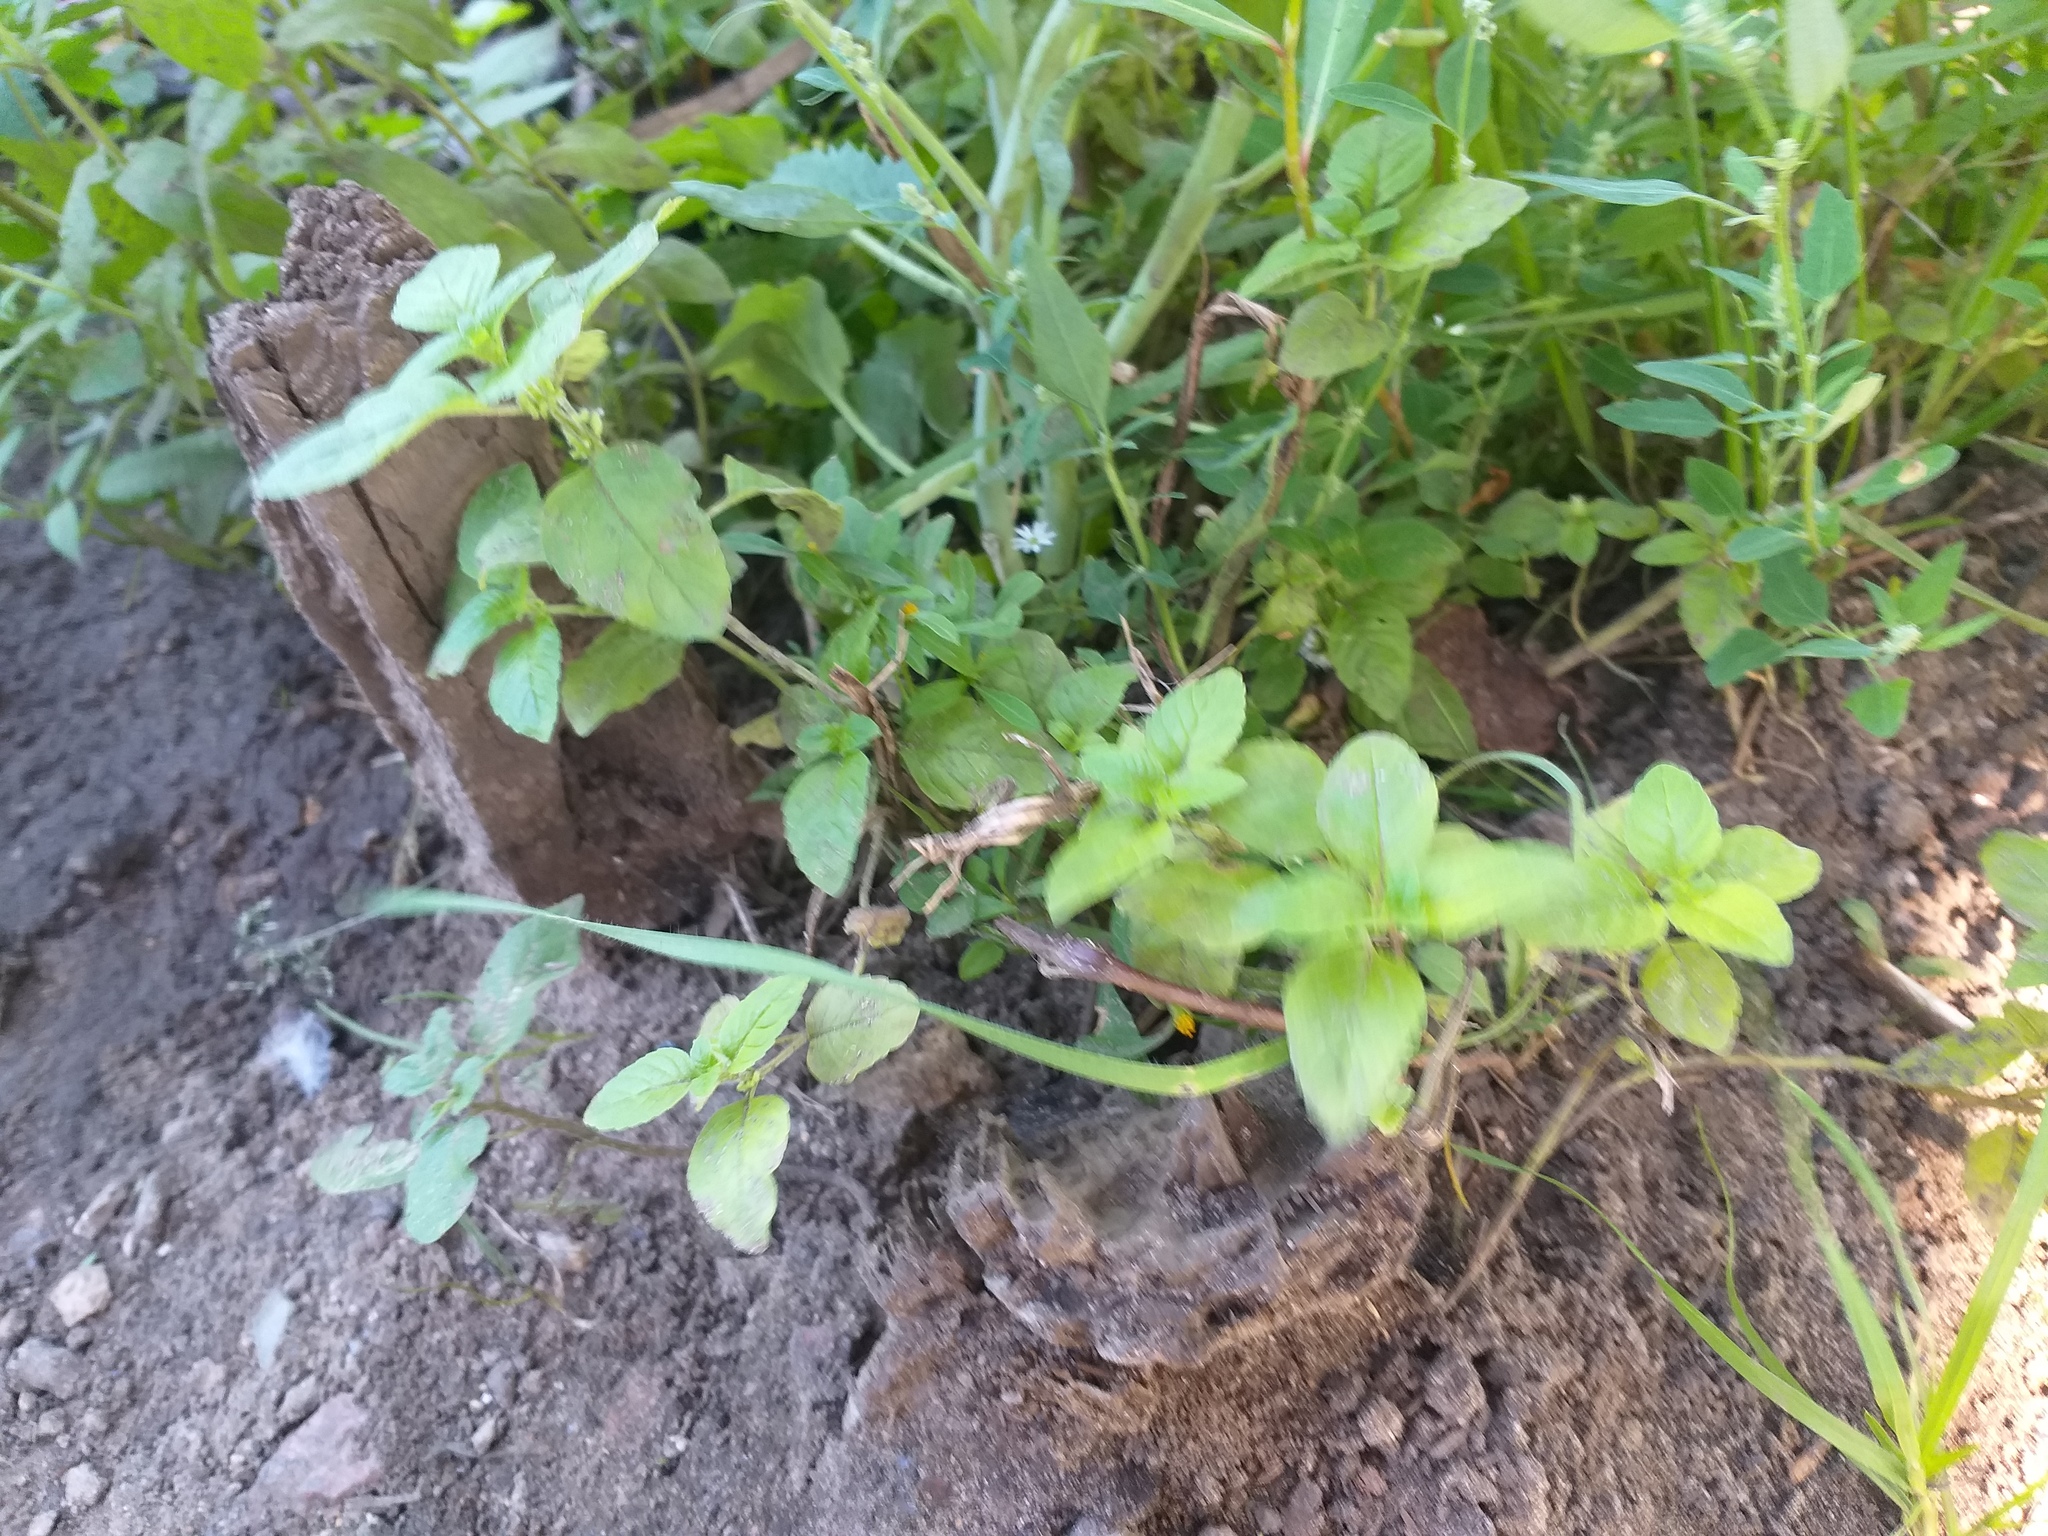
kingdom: Plantae
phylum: Tracheophyta
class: Magnoliopsida
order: Lamiales
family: Lamiaceae
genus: Mentha
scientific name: Mentha arvensis
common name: Corn mint
